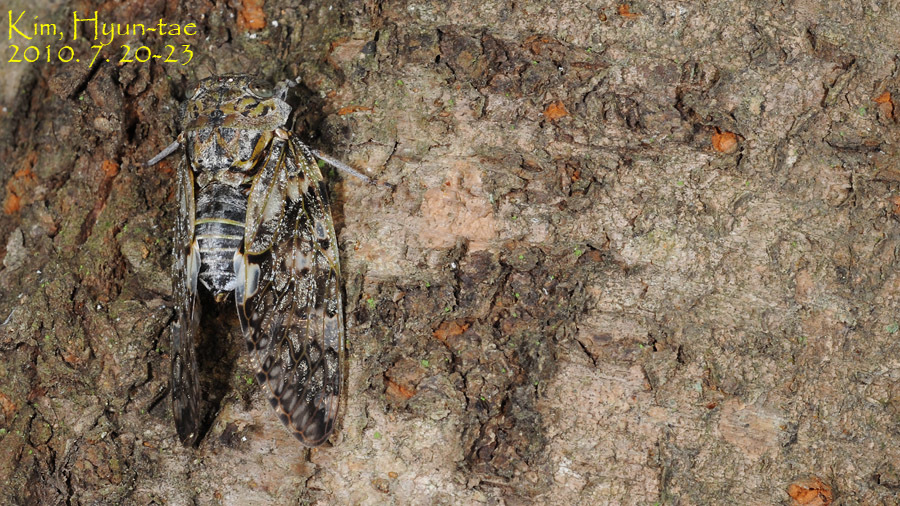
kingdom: Animalia
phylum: Arthropoda
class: Insecta
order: Hemiptera
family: Cicadidae
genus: Platypleura
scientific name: Platypleura kaempferi
